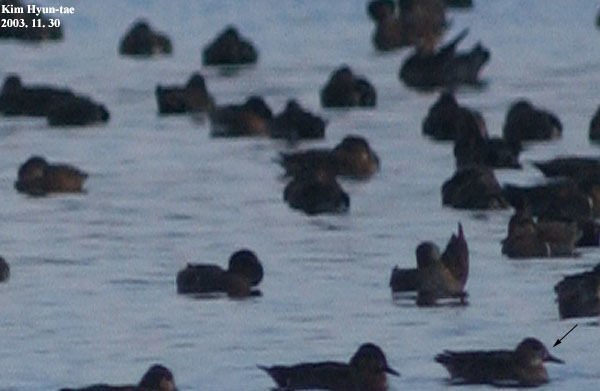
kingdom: Animalia
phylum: Chordata
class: Aves
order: Anseriformes
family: Anatidae
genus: Sibirionetta
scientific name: Sibirionetta formosa
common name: Baikal teal
